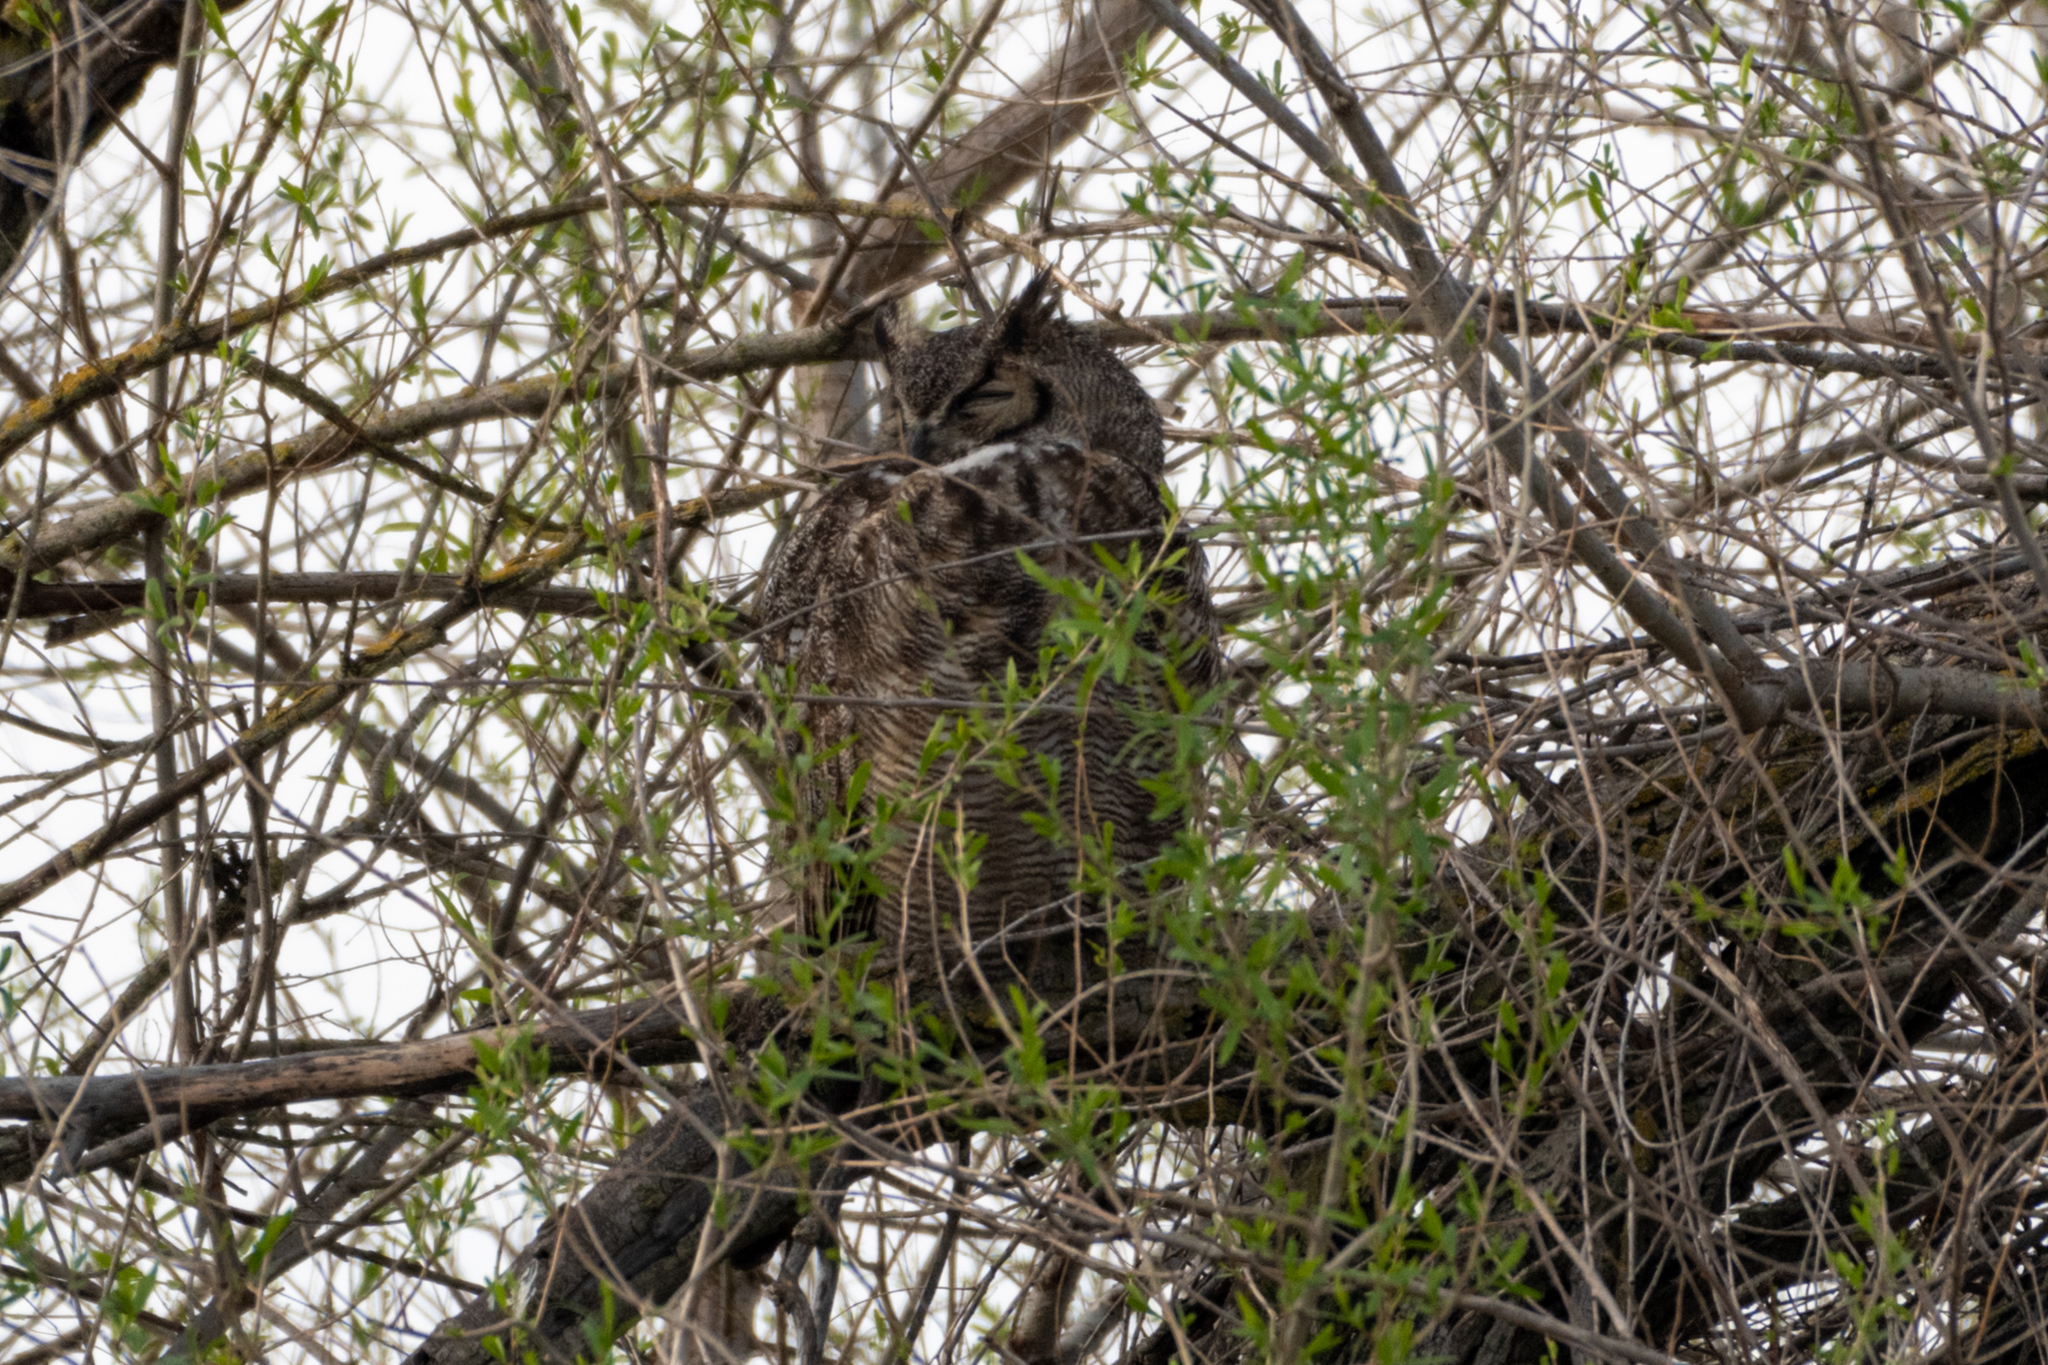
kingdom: Animalia
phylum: Chordata
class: Aves
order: Strigiformes
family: Strigidae
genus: Bubo
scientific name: Bubo virginianus
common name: Great horned owl
